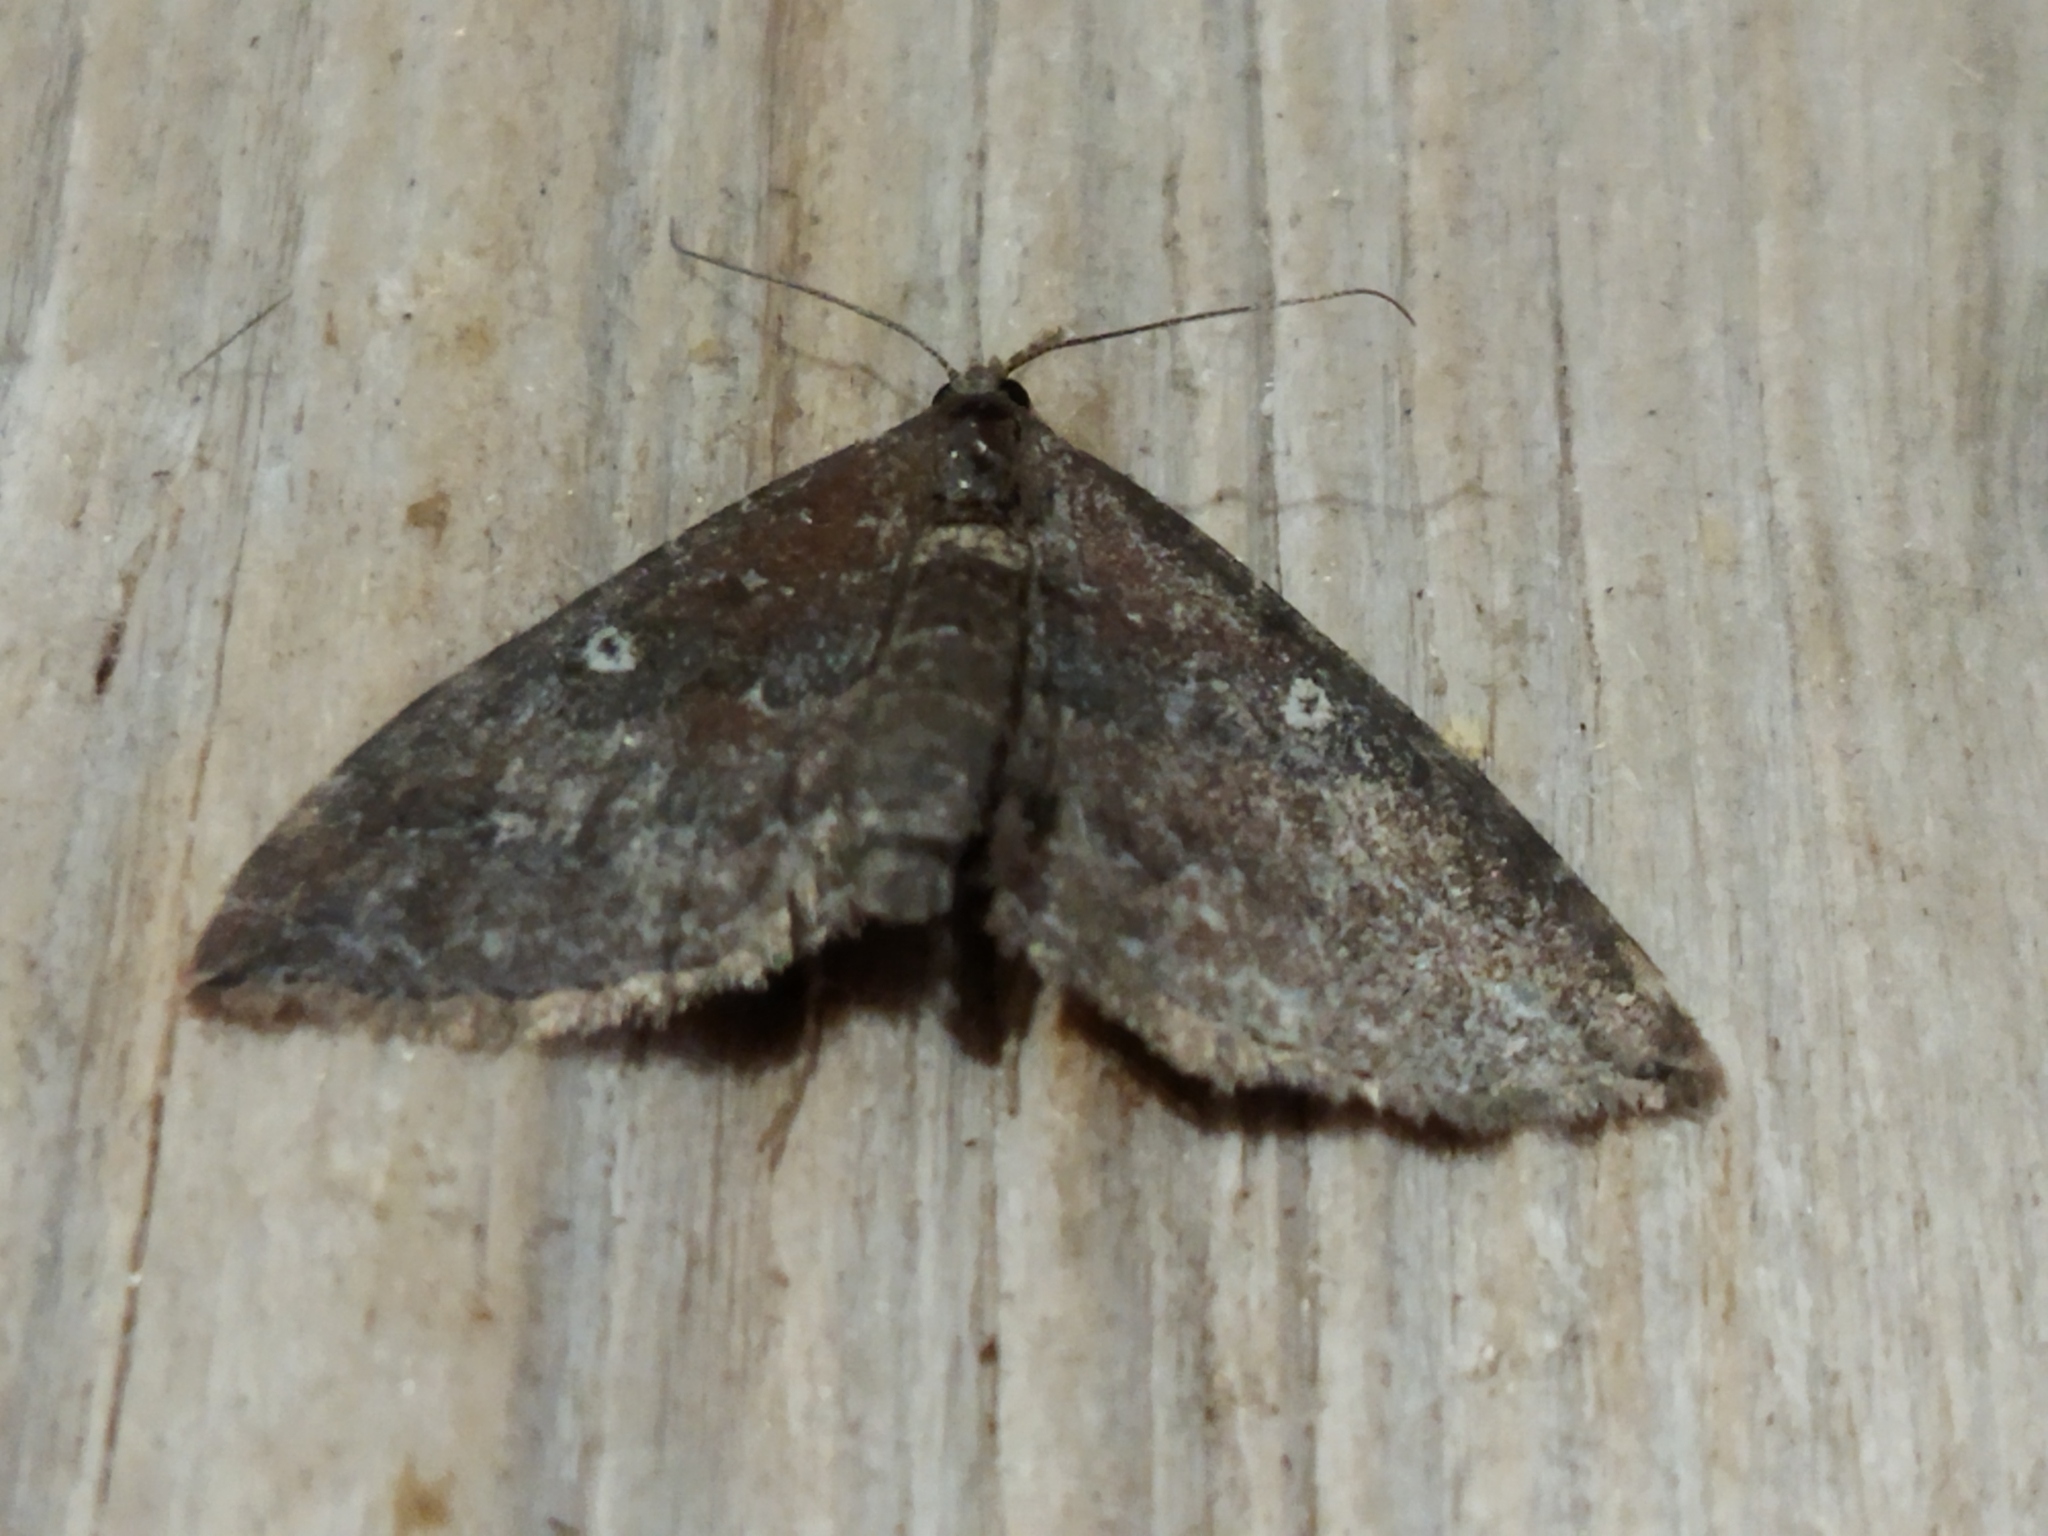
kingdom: Animalia
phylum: Arthropoda
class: Insecta
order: Lepidoptera
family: Geometridae
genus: Orthonama
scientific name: Orthonama obstipata
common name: The gem
